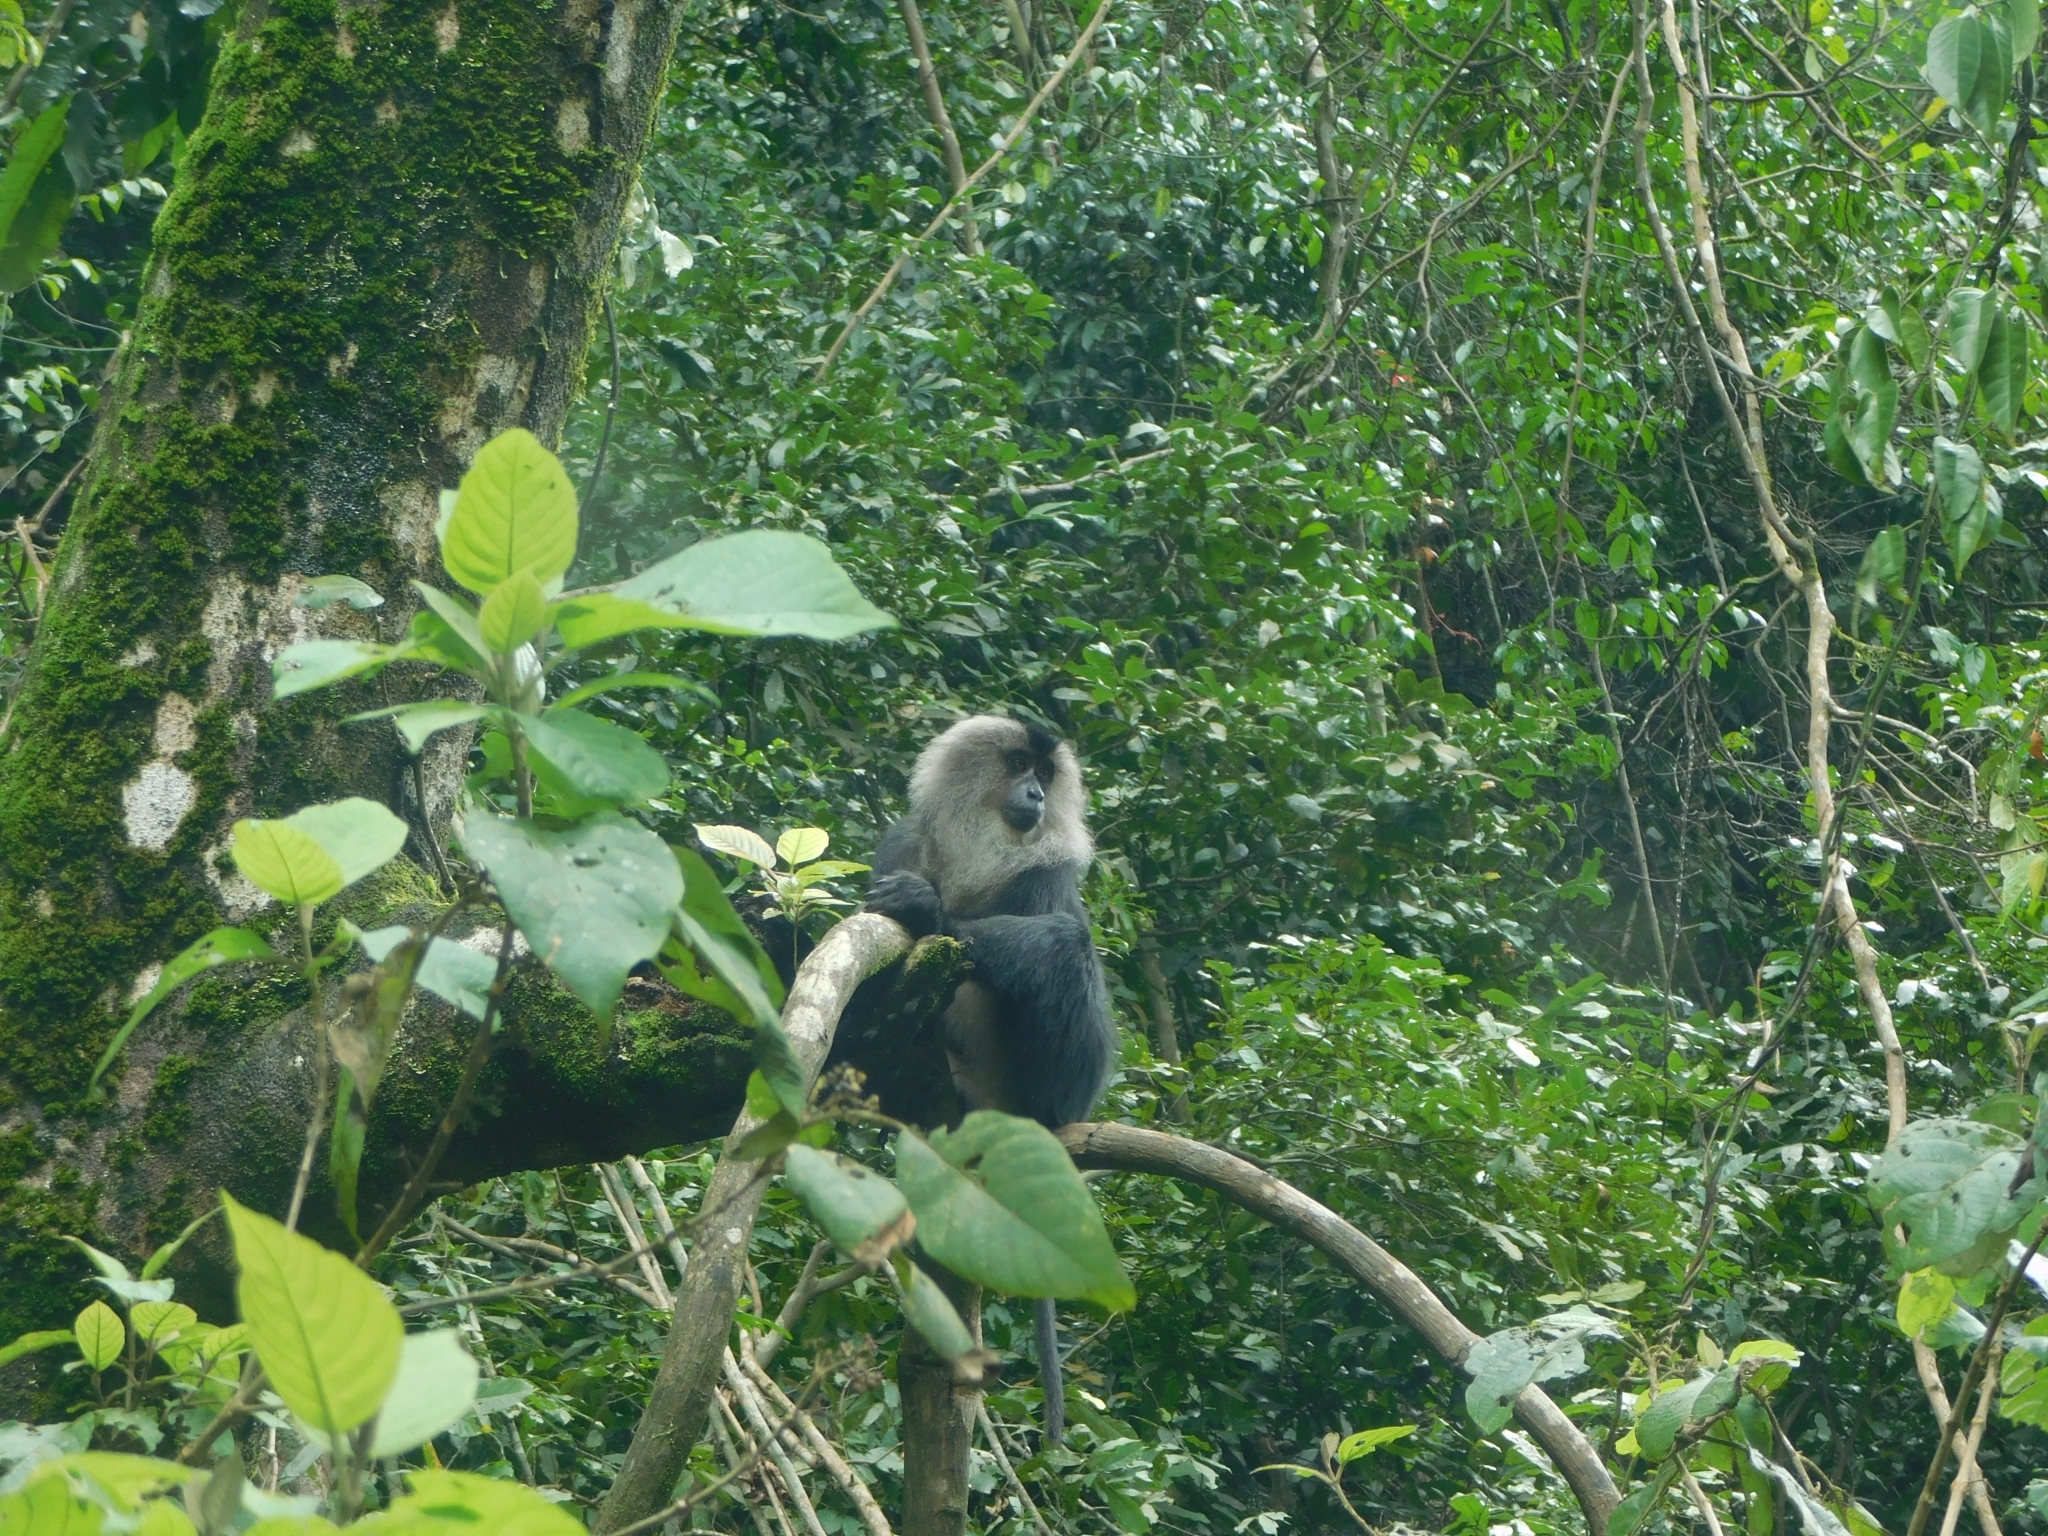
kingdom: Animalia
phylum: Chordata
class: Mammalia
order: Primates
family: Cercopithecidae
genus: Macaca
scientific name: Macaca silenus
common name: Lion-tailed macaque
